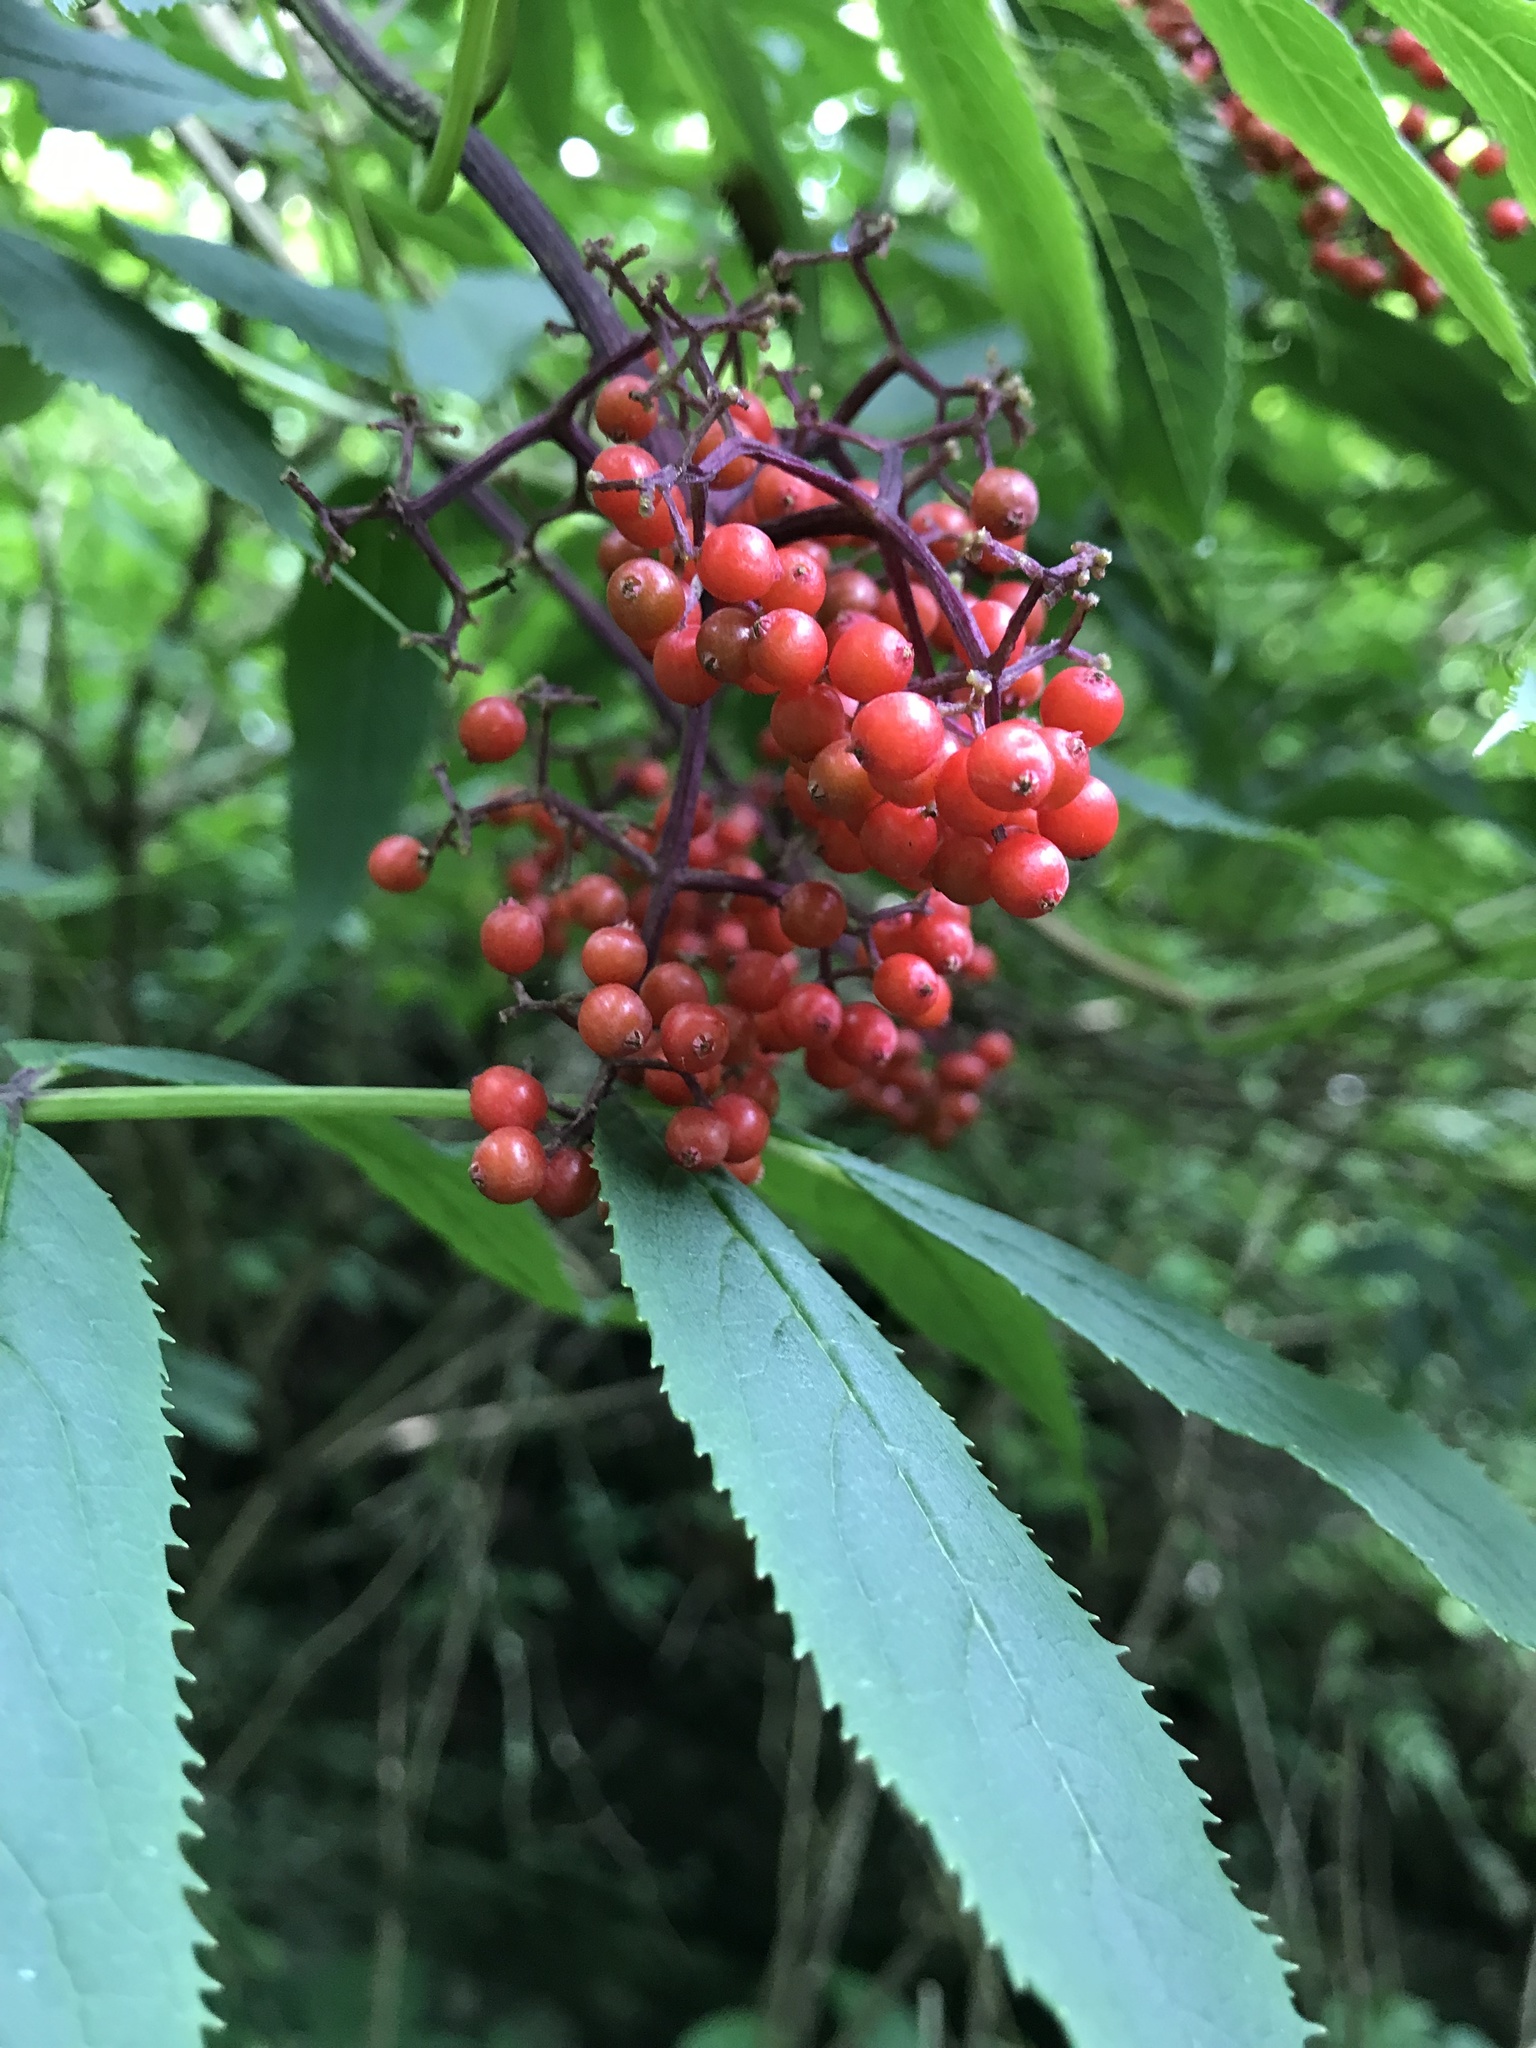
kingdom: Plantae
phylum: Tracheophyta
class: Magnoliopsida
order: Dipsacales
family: Viburnaceae
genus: Sambucus
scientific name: Sambucus racemosa
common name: Red-berried elder
